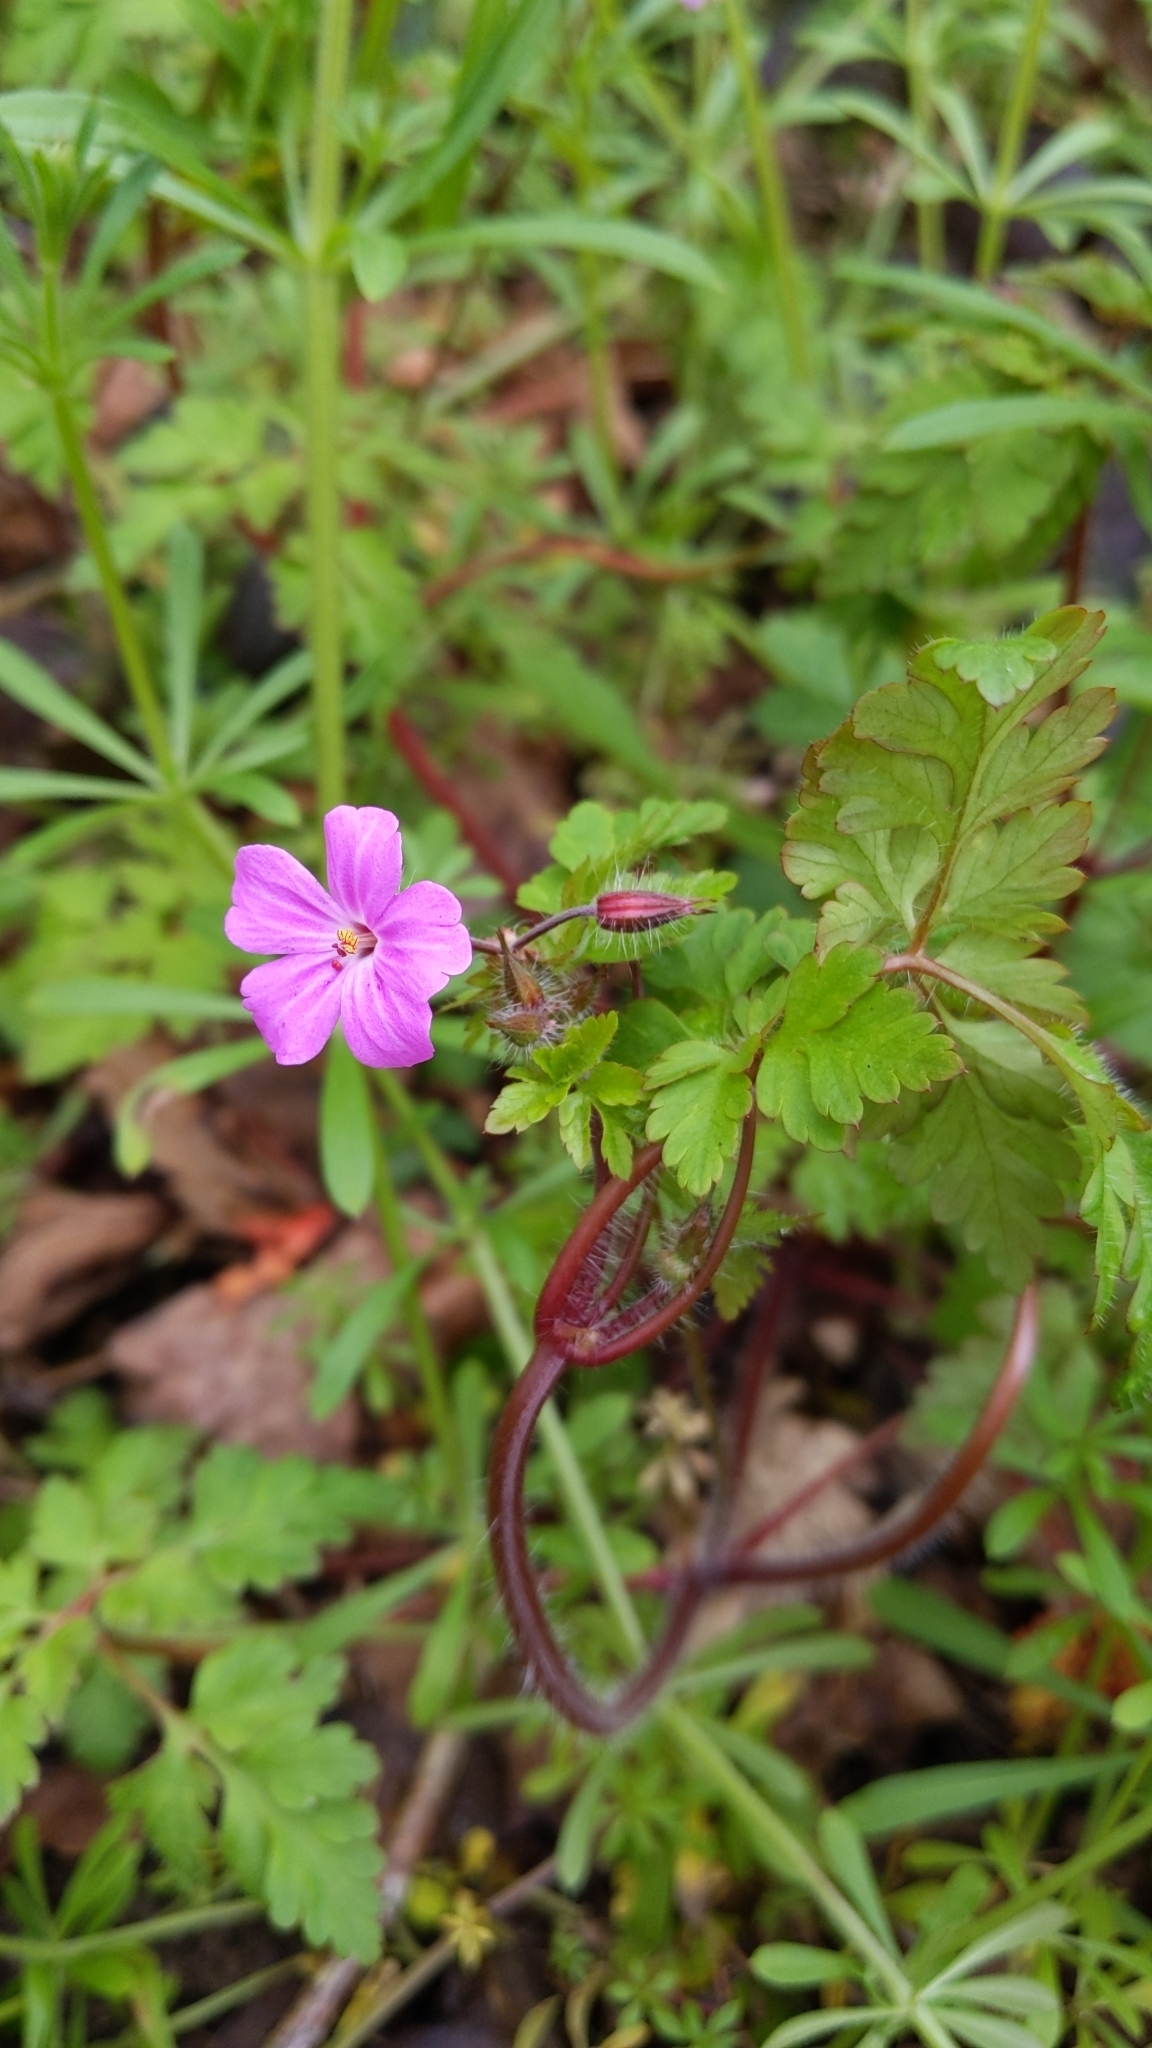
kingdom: Plantae
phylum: Tracheophyta
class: Magnoliopsida
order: Geraniales
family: Geraniaceae
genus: Geranium
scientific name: Geranium robertianum
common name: Herb-robert
